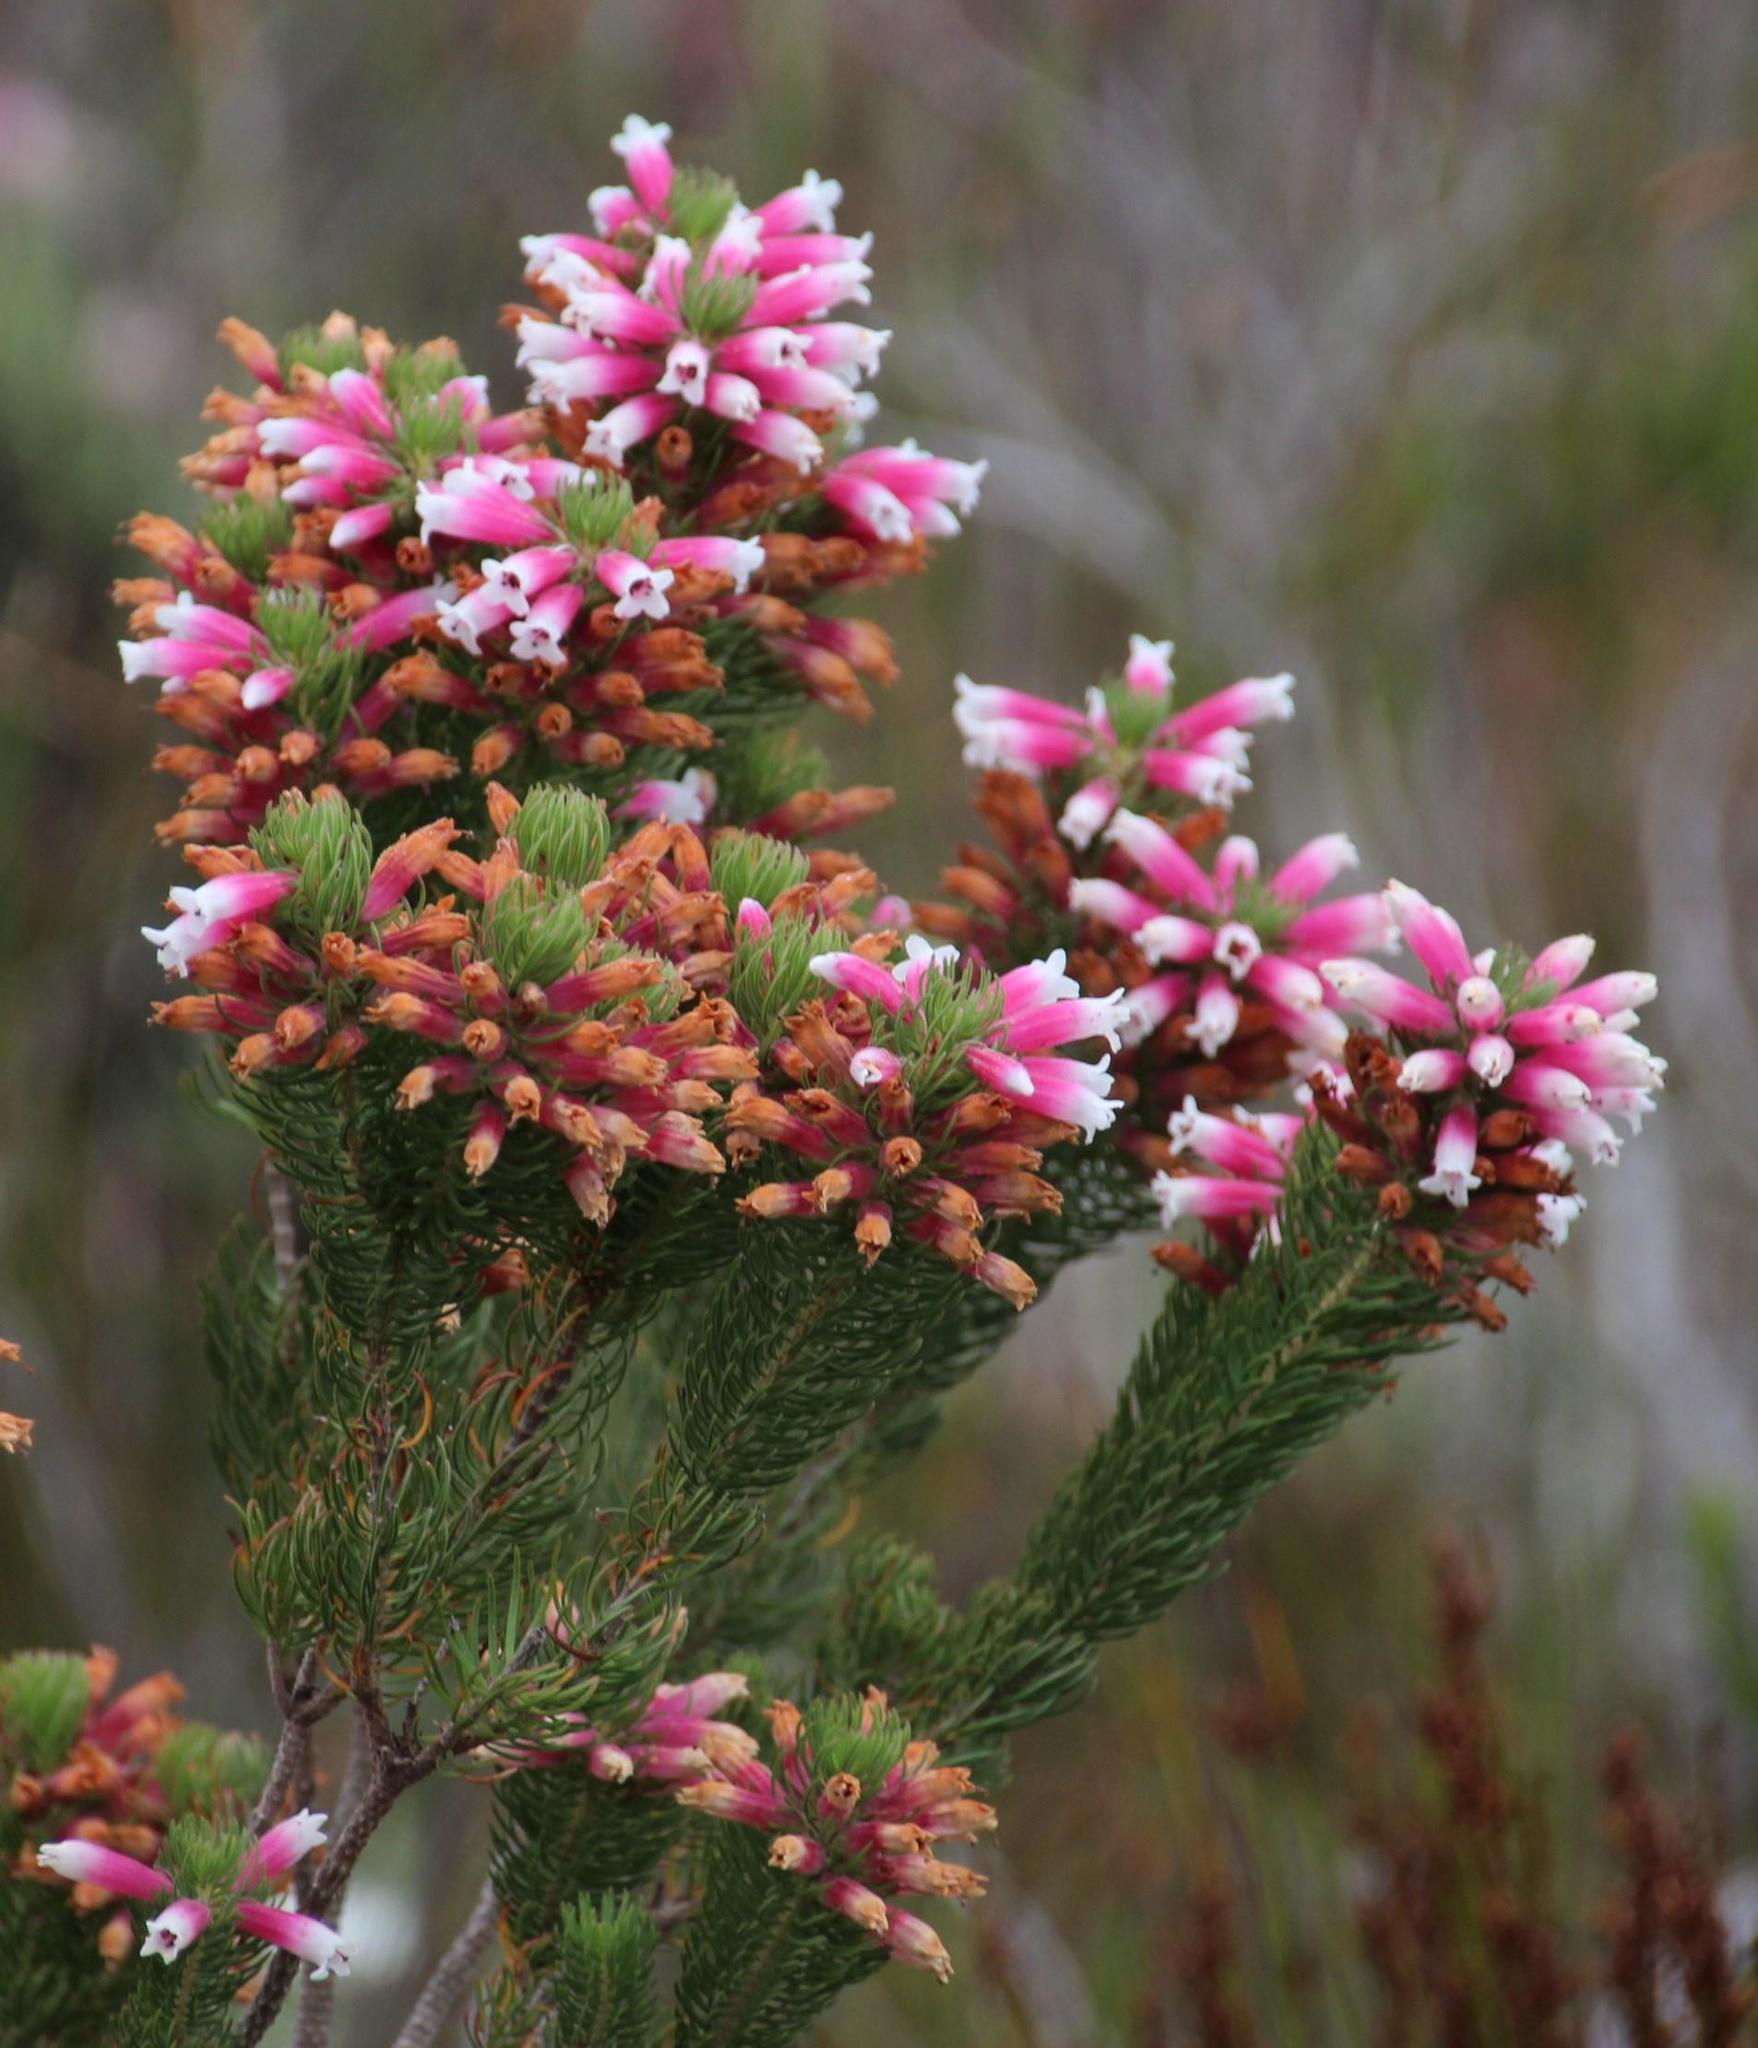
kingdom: Plantae
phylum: Tracheophyta
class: Magnoliopsida
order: Ericales
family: Ericaceae
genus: Erica
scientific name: Erica viscaria
